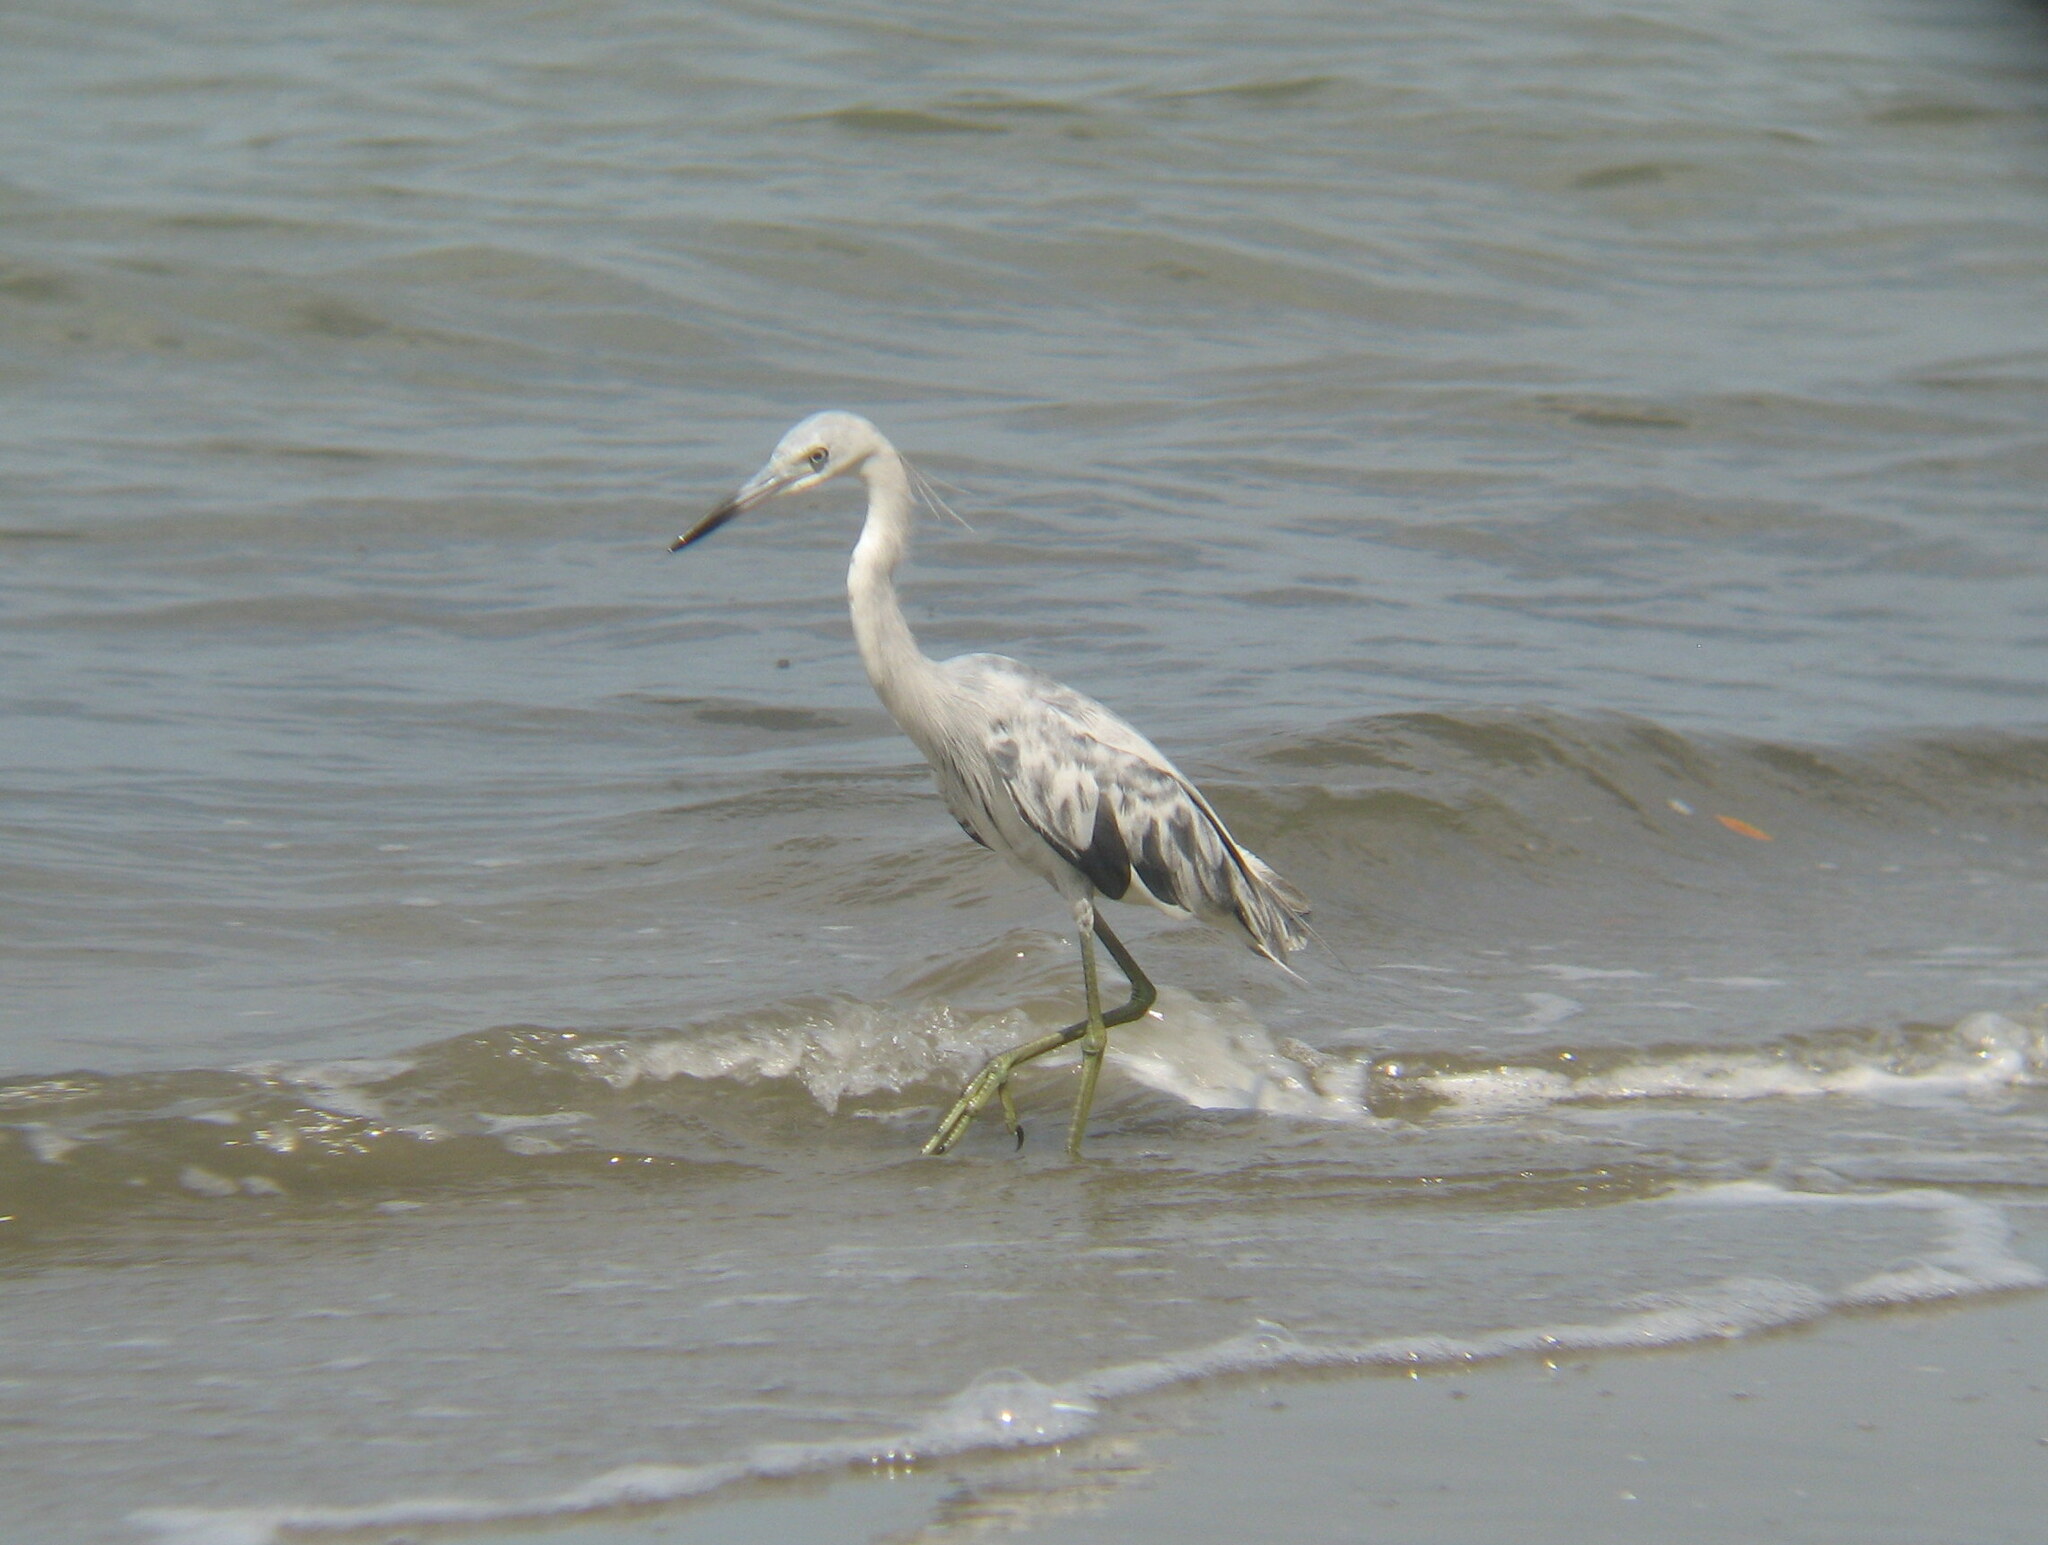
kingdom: Animalia
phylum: Chordata
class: Aves
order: Pelecaniformes
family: Ardeidae
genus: Egretta
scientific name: Egretta caerulea
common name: Little blue heron
